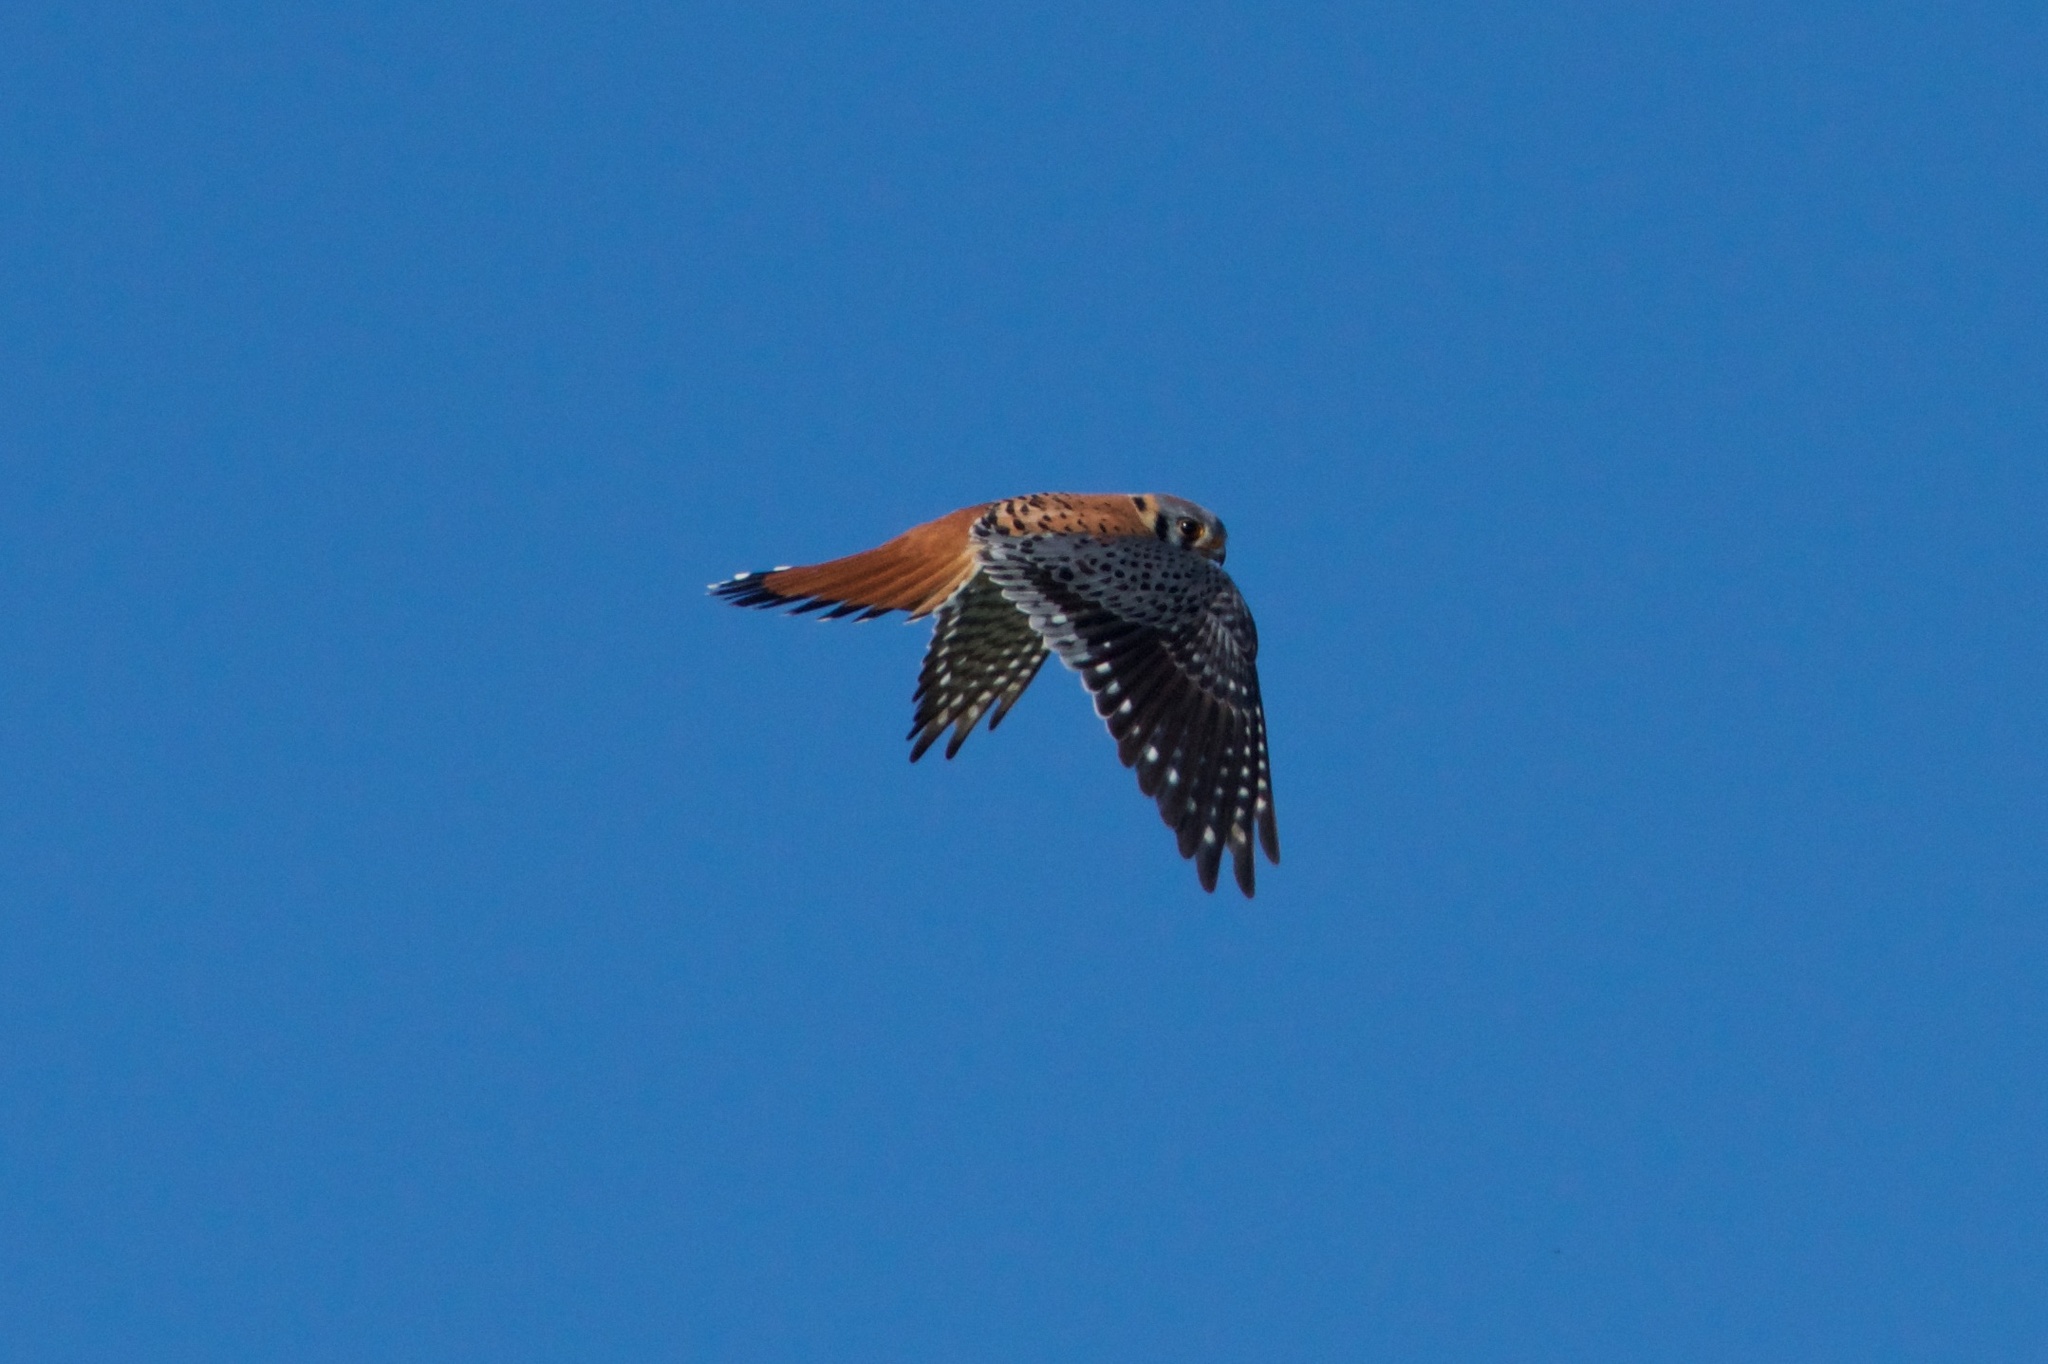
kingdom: Animalia
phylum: Chordata
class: Aves
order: Falconiformes
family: Falconidae
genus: Falco
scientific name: Falco sparverius
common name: American kestrel
